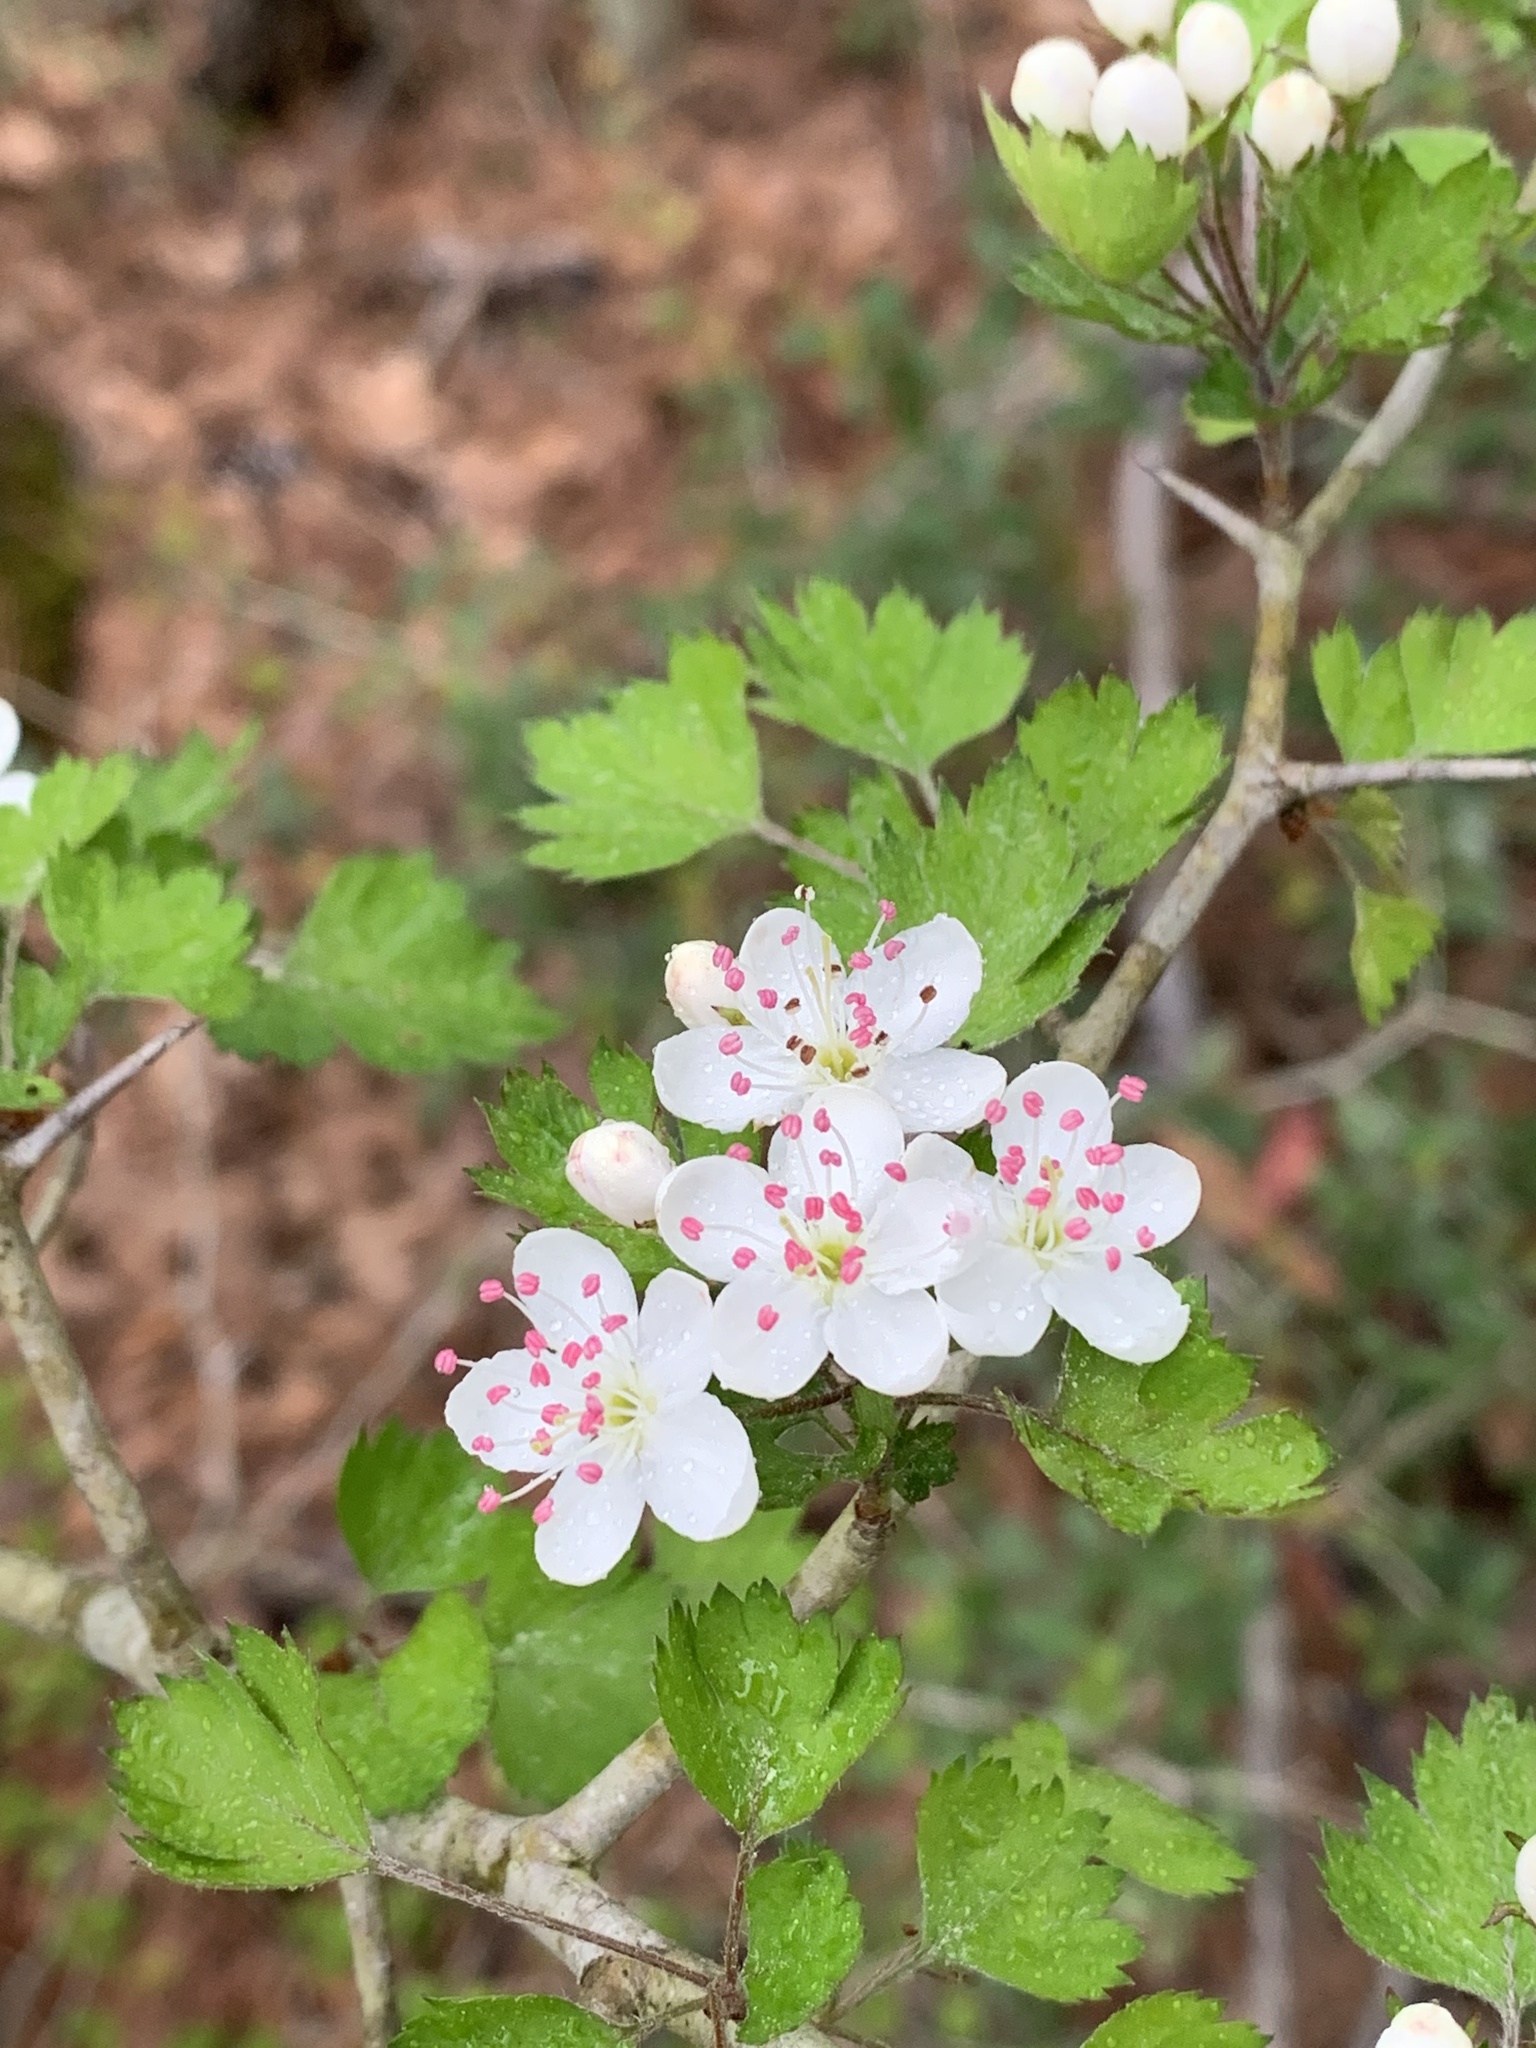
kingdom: Plantae
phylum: Tracheophyta
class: Magnoliopsida
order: Rosales
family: Rosaceae
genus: Crataegus
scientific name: Crataegus marshallii
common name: Parsley-hawthorn
